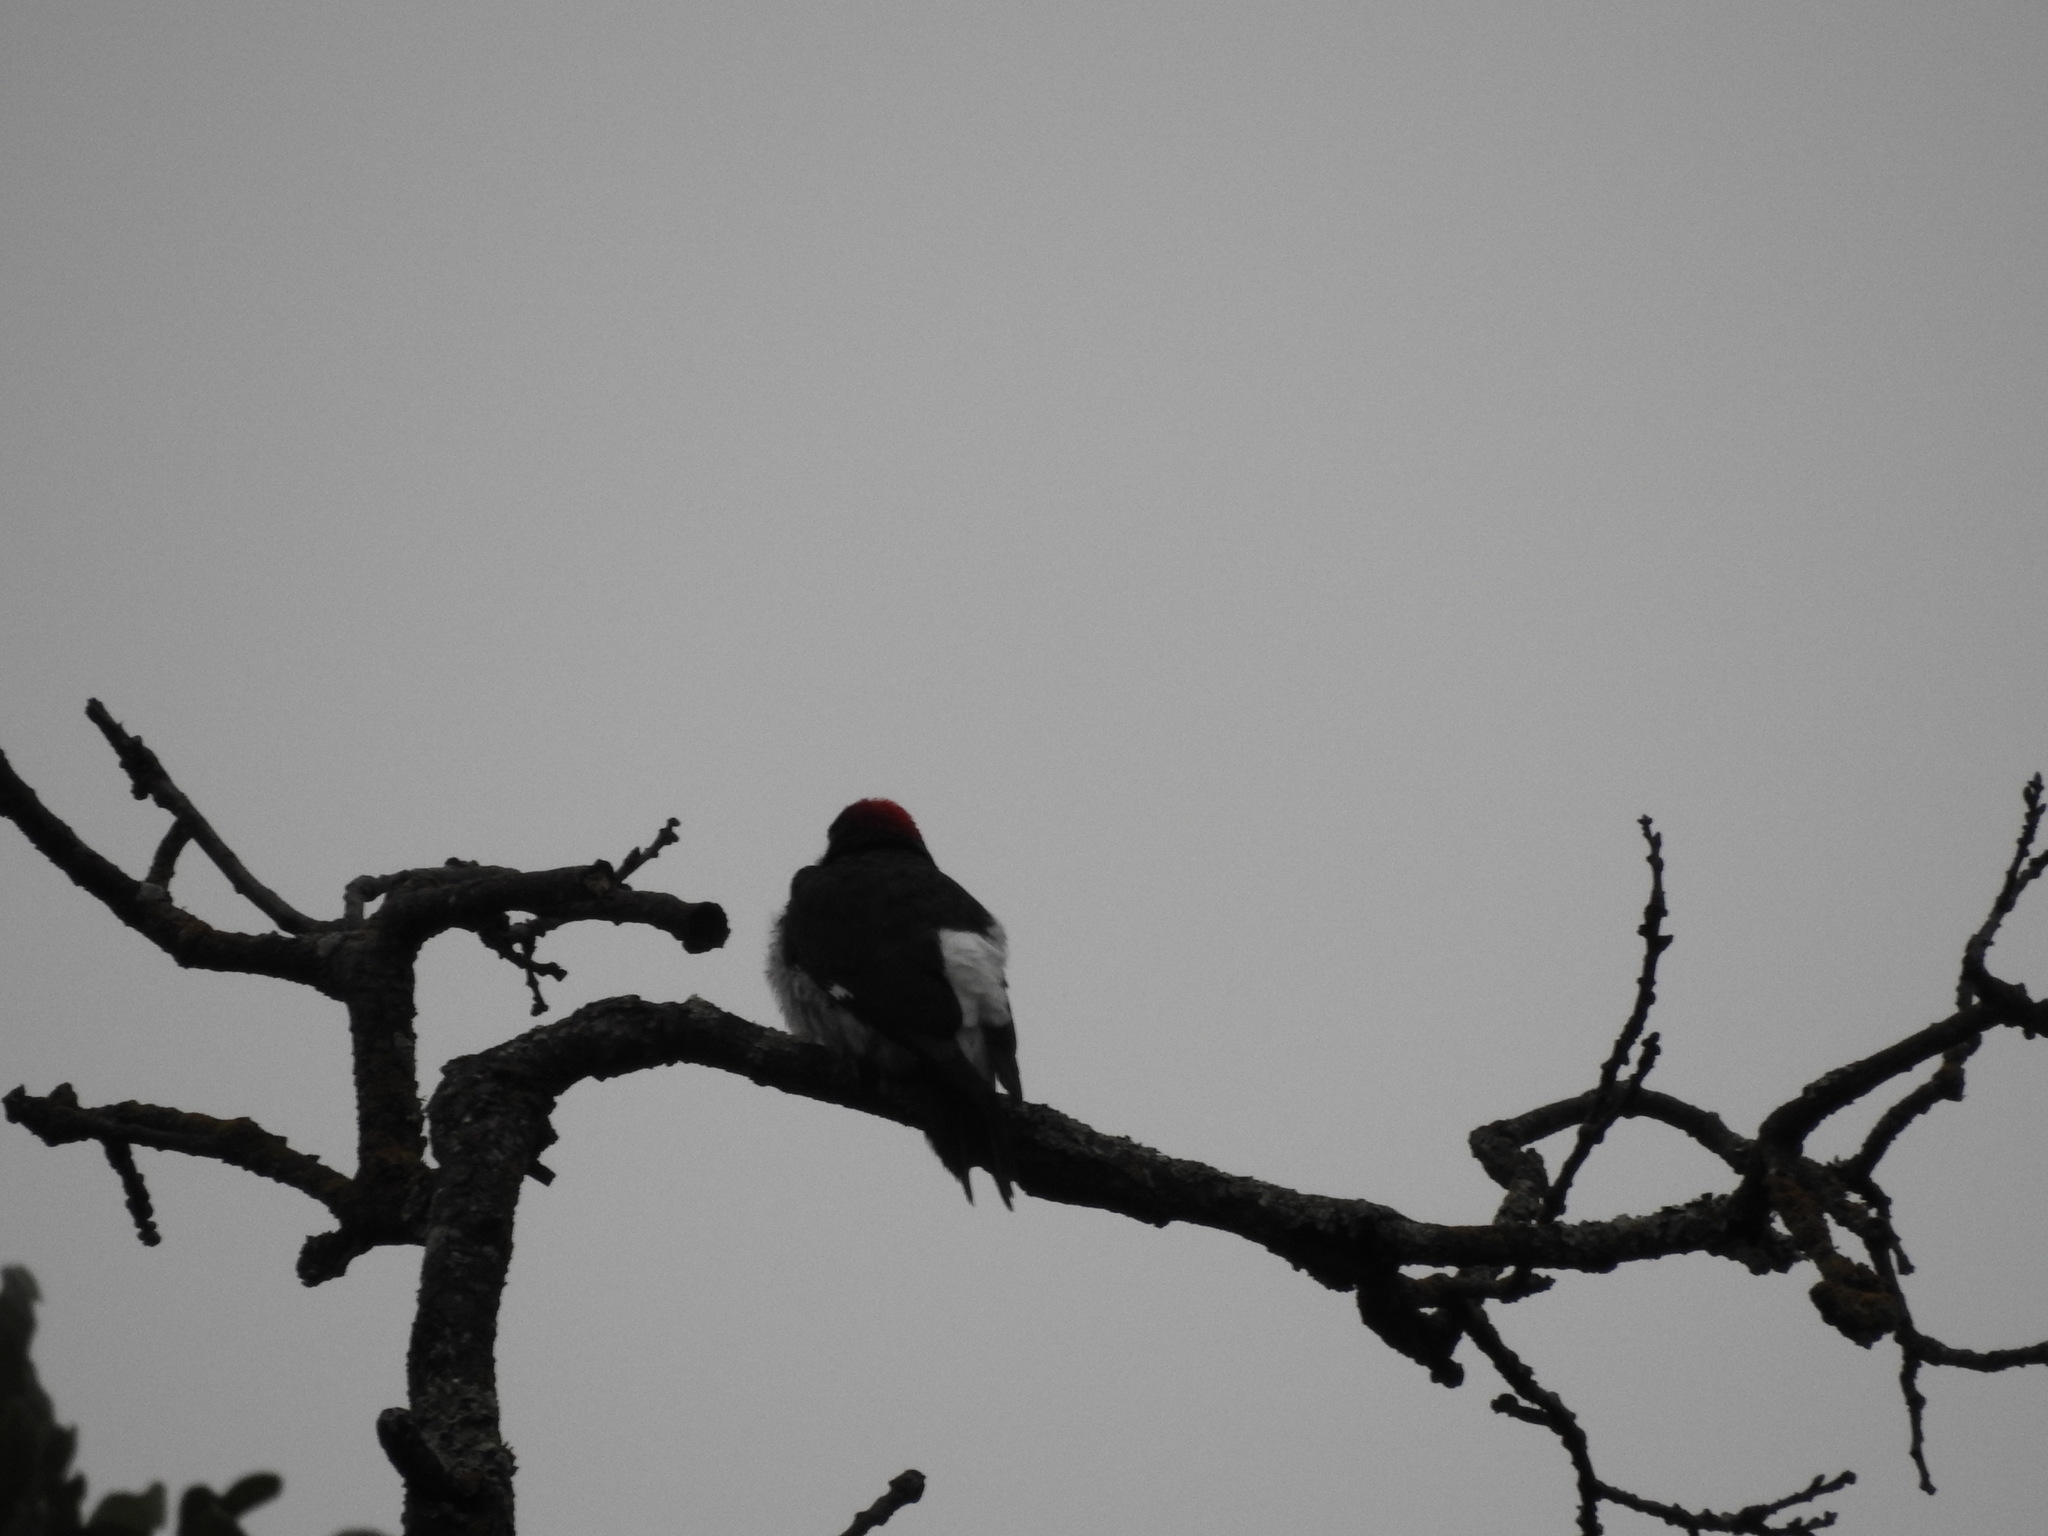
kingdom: Animalia
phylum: Chordata
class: Aves
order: Piciformes
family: Picidae
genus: Melanerpes
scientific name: Melanerpes formicivorus
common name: Acorn woodpecker
